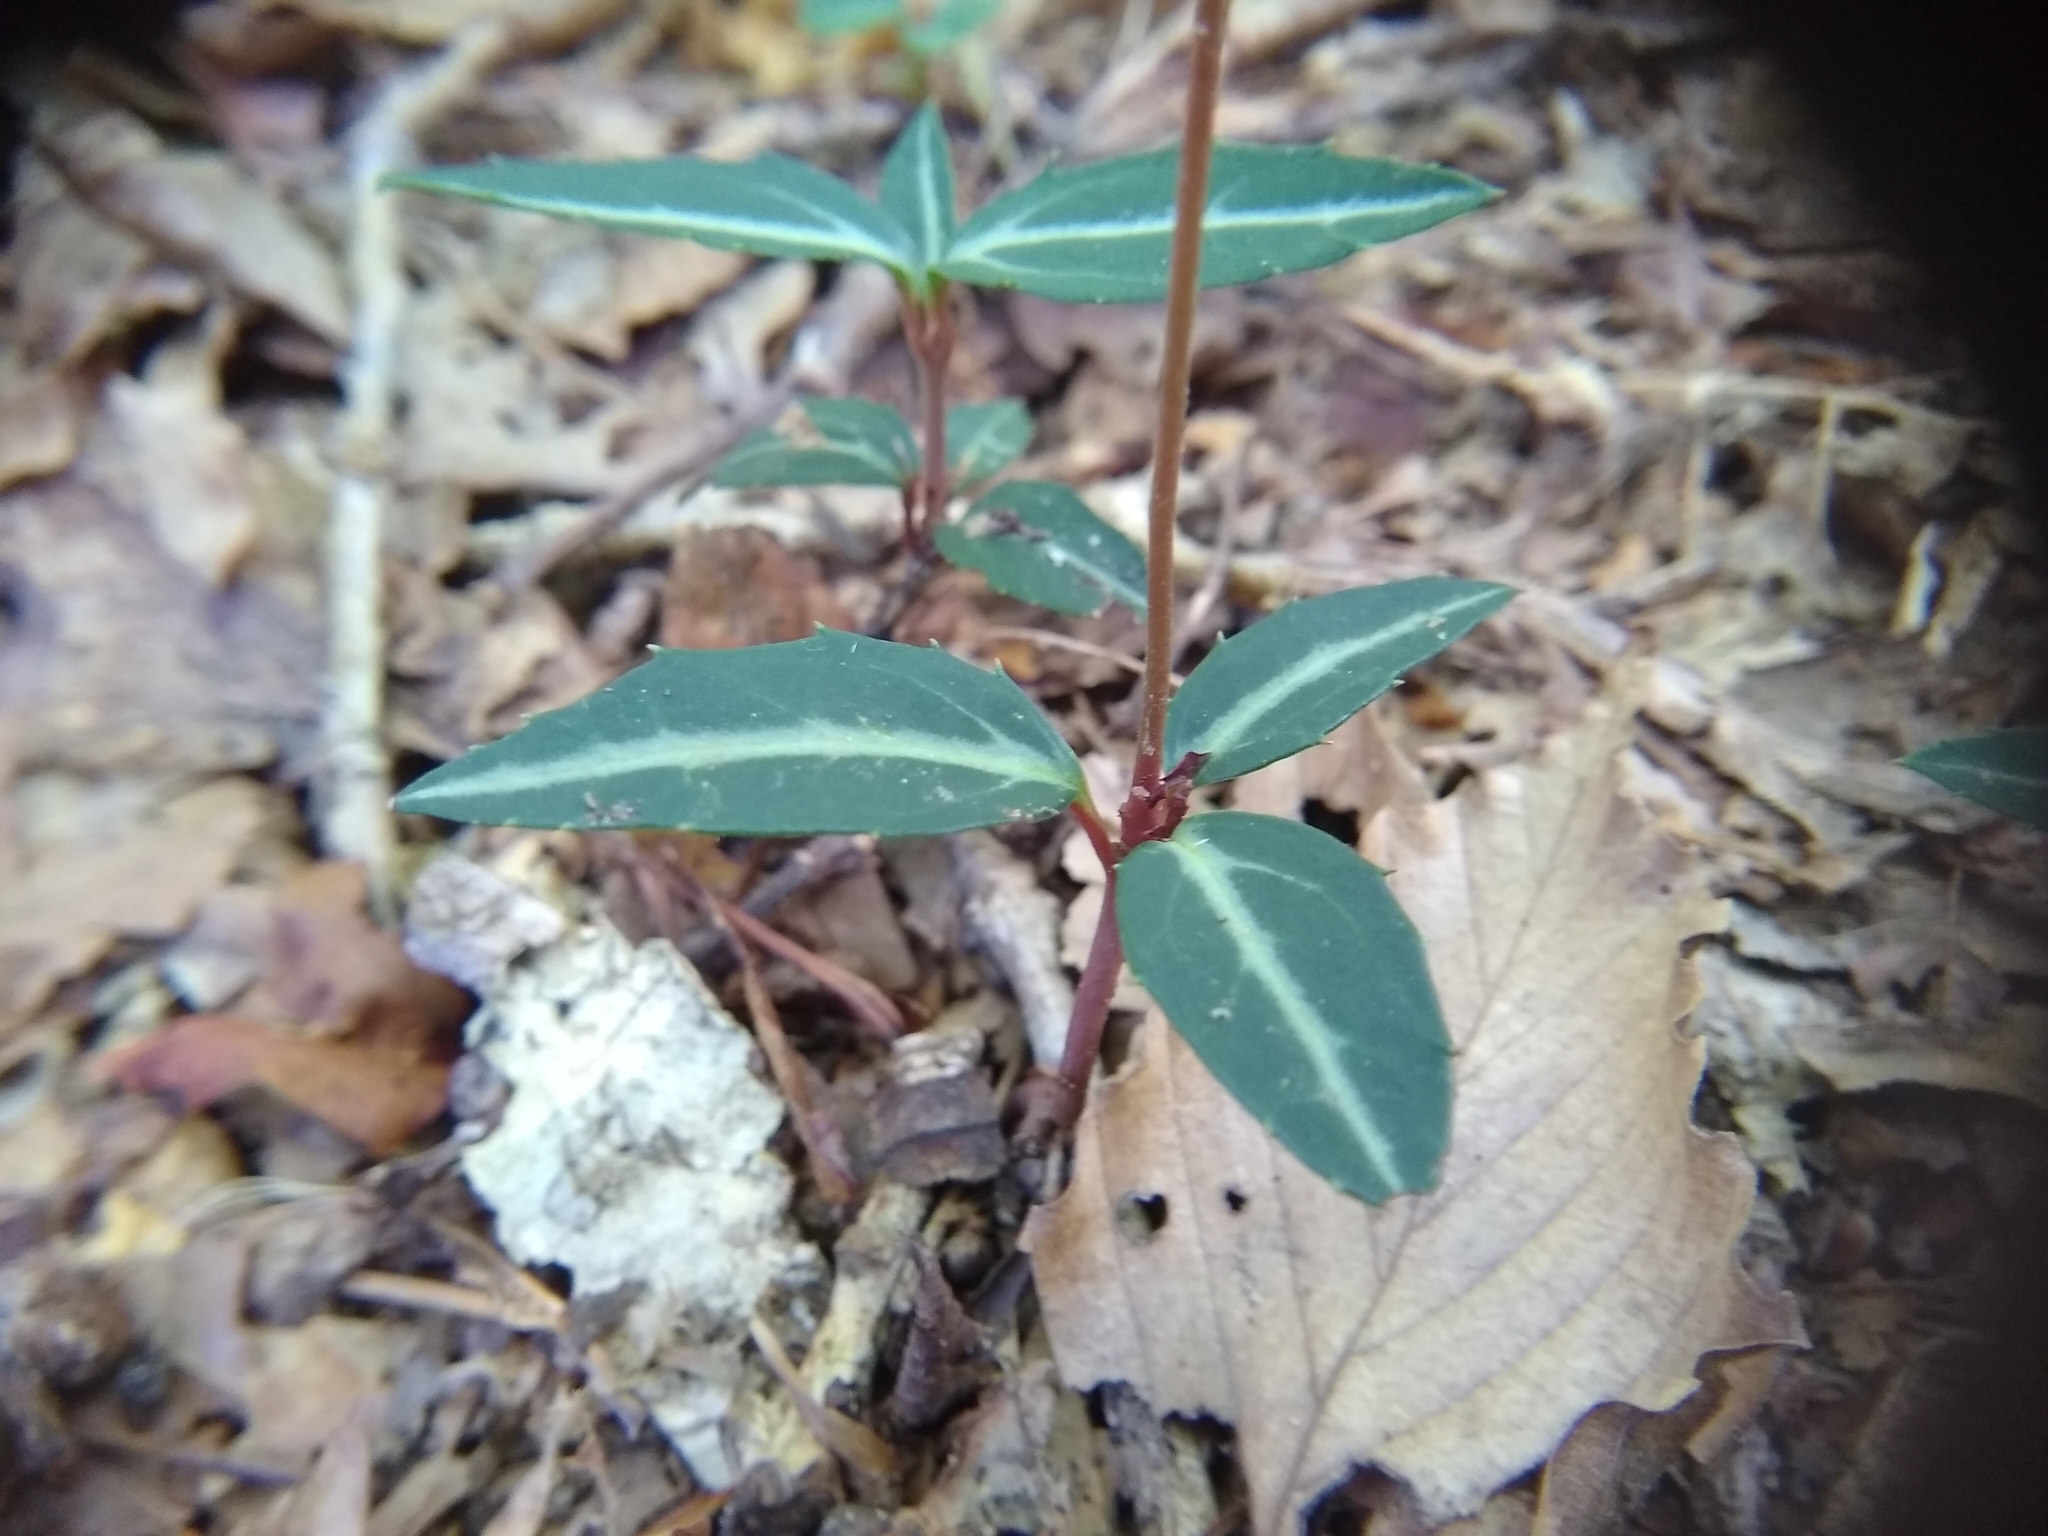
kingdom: Plantae
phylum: Tracheophyta
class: Magnoliopsida
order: Ericales
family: Ericaceae
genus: Chimaphila
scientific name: Chimaphila maculata
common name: Spotted pipsissewa
